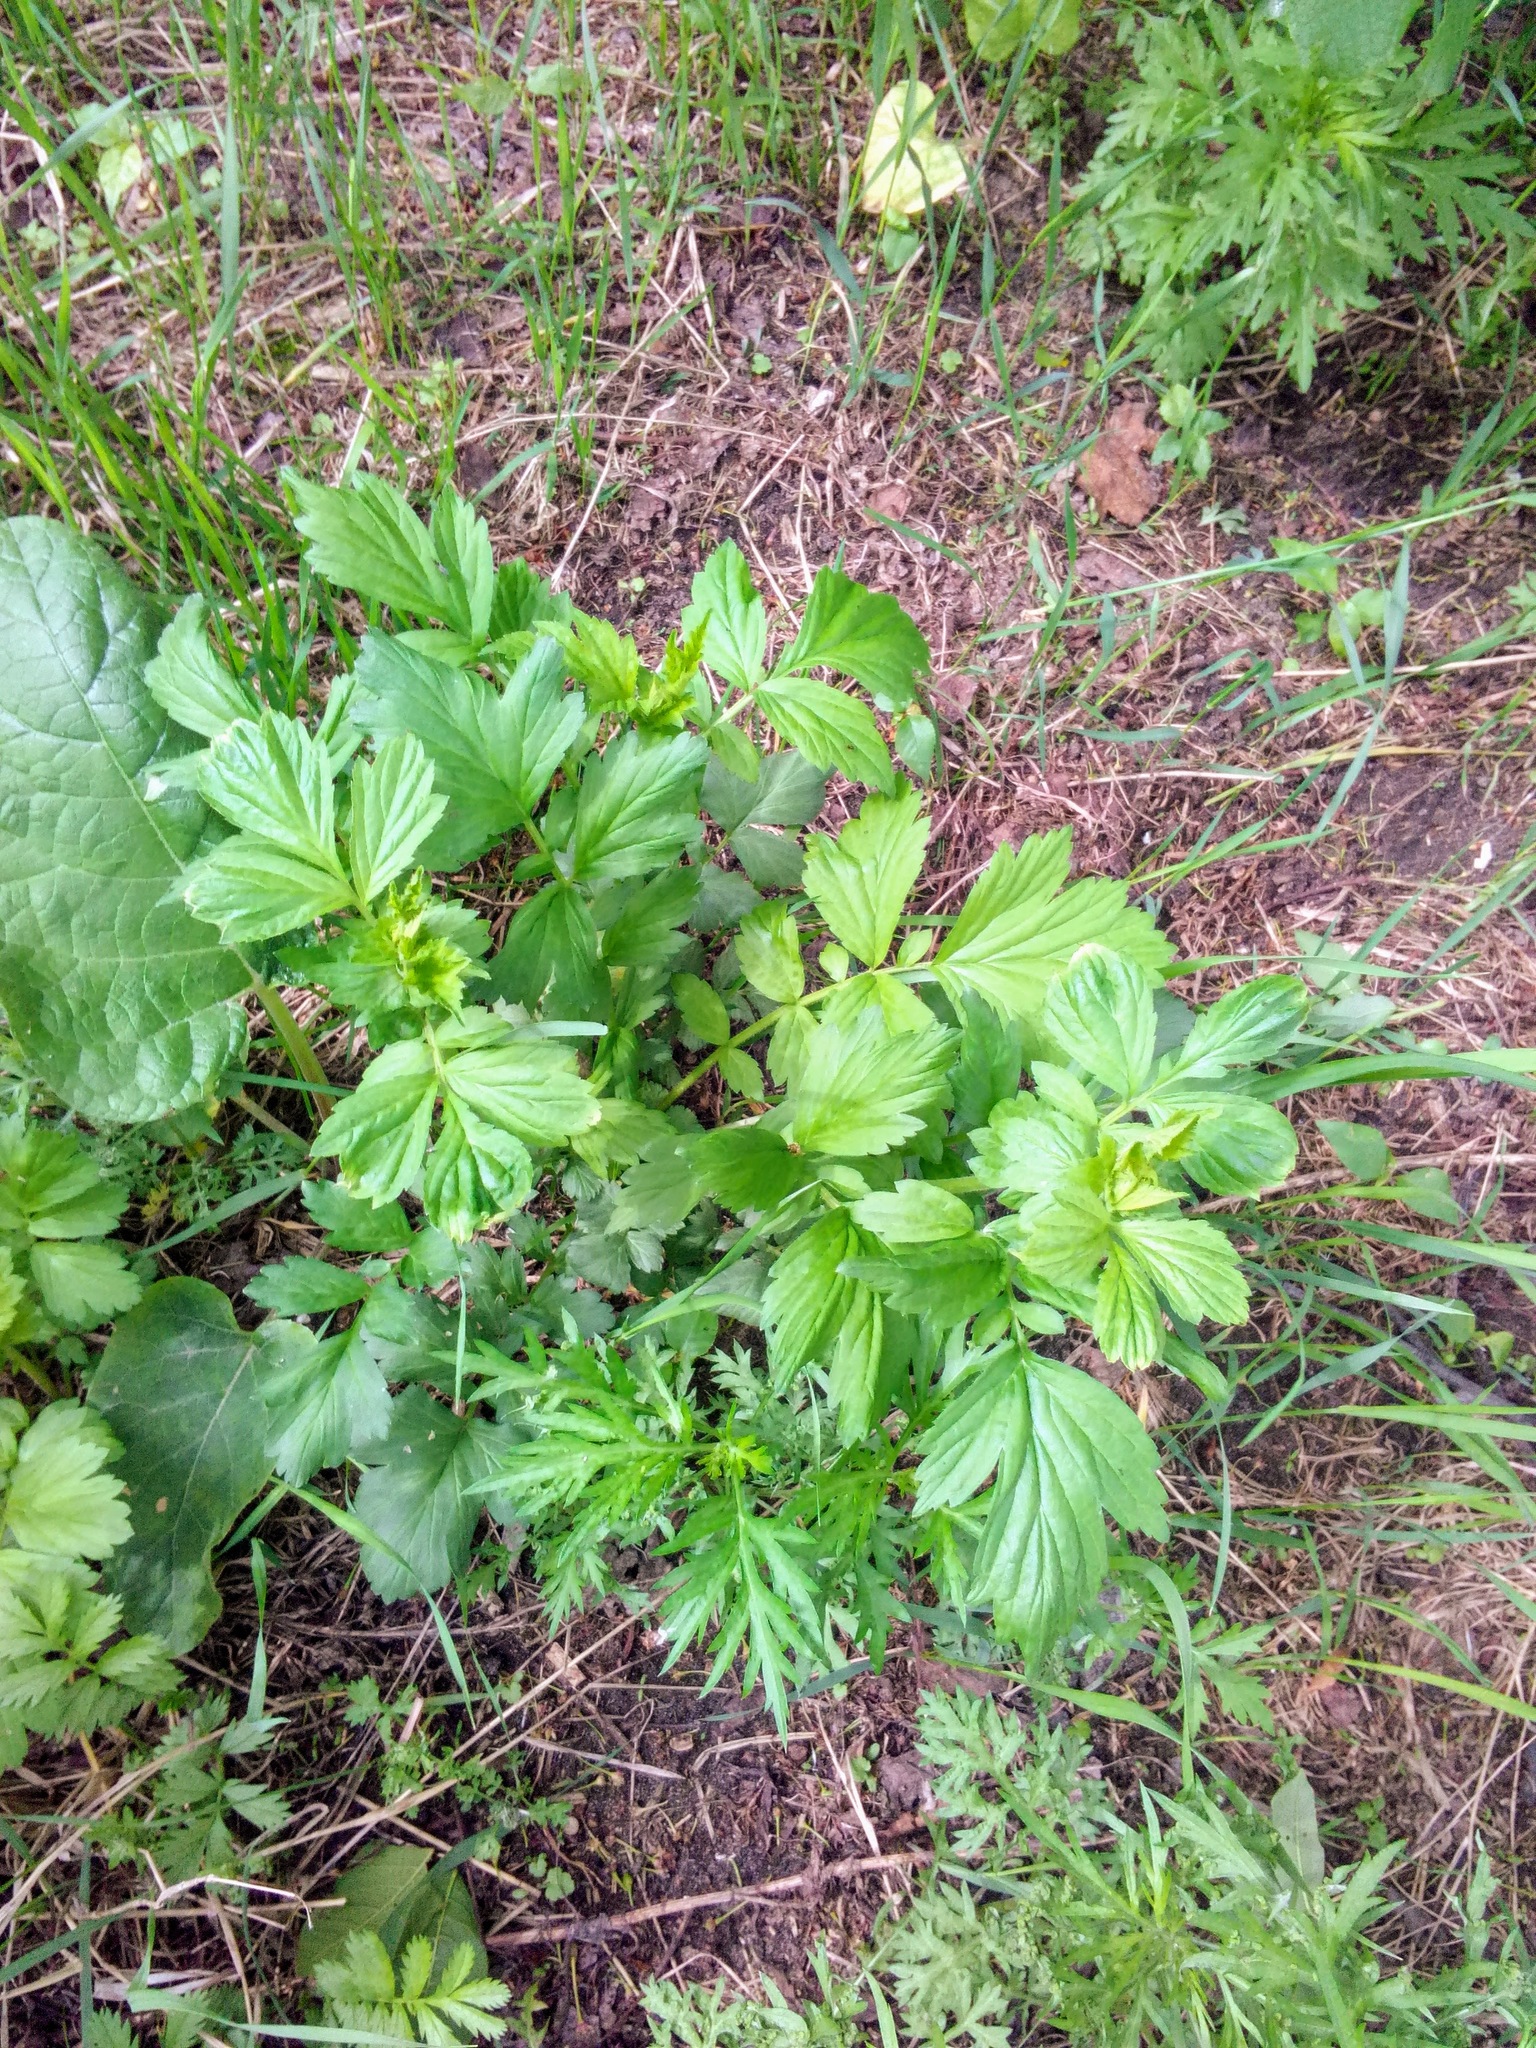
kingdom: Plantae
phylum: Tracheophyta
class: Magnoliopsida
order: Rosales
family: Rosaceae
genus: Geum
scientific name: Geum aleppicum
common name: Yellow avens
